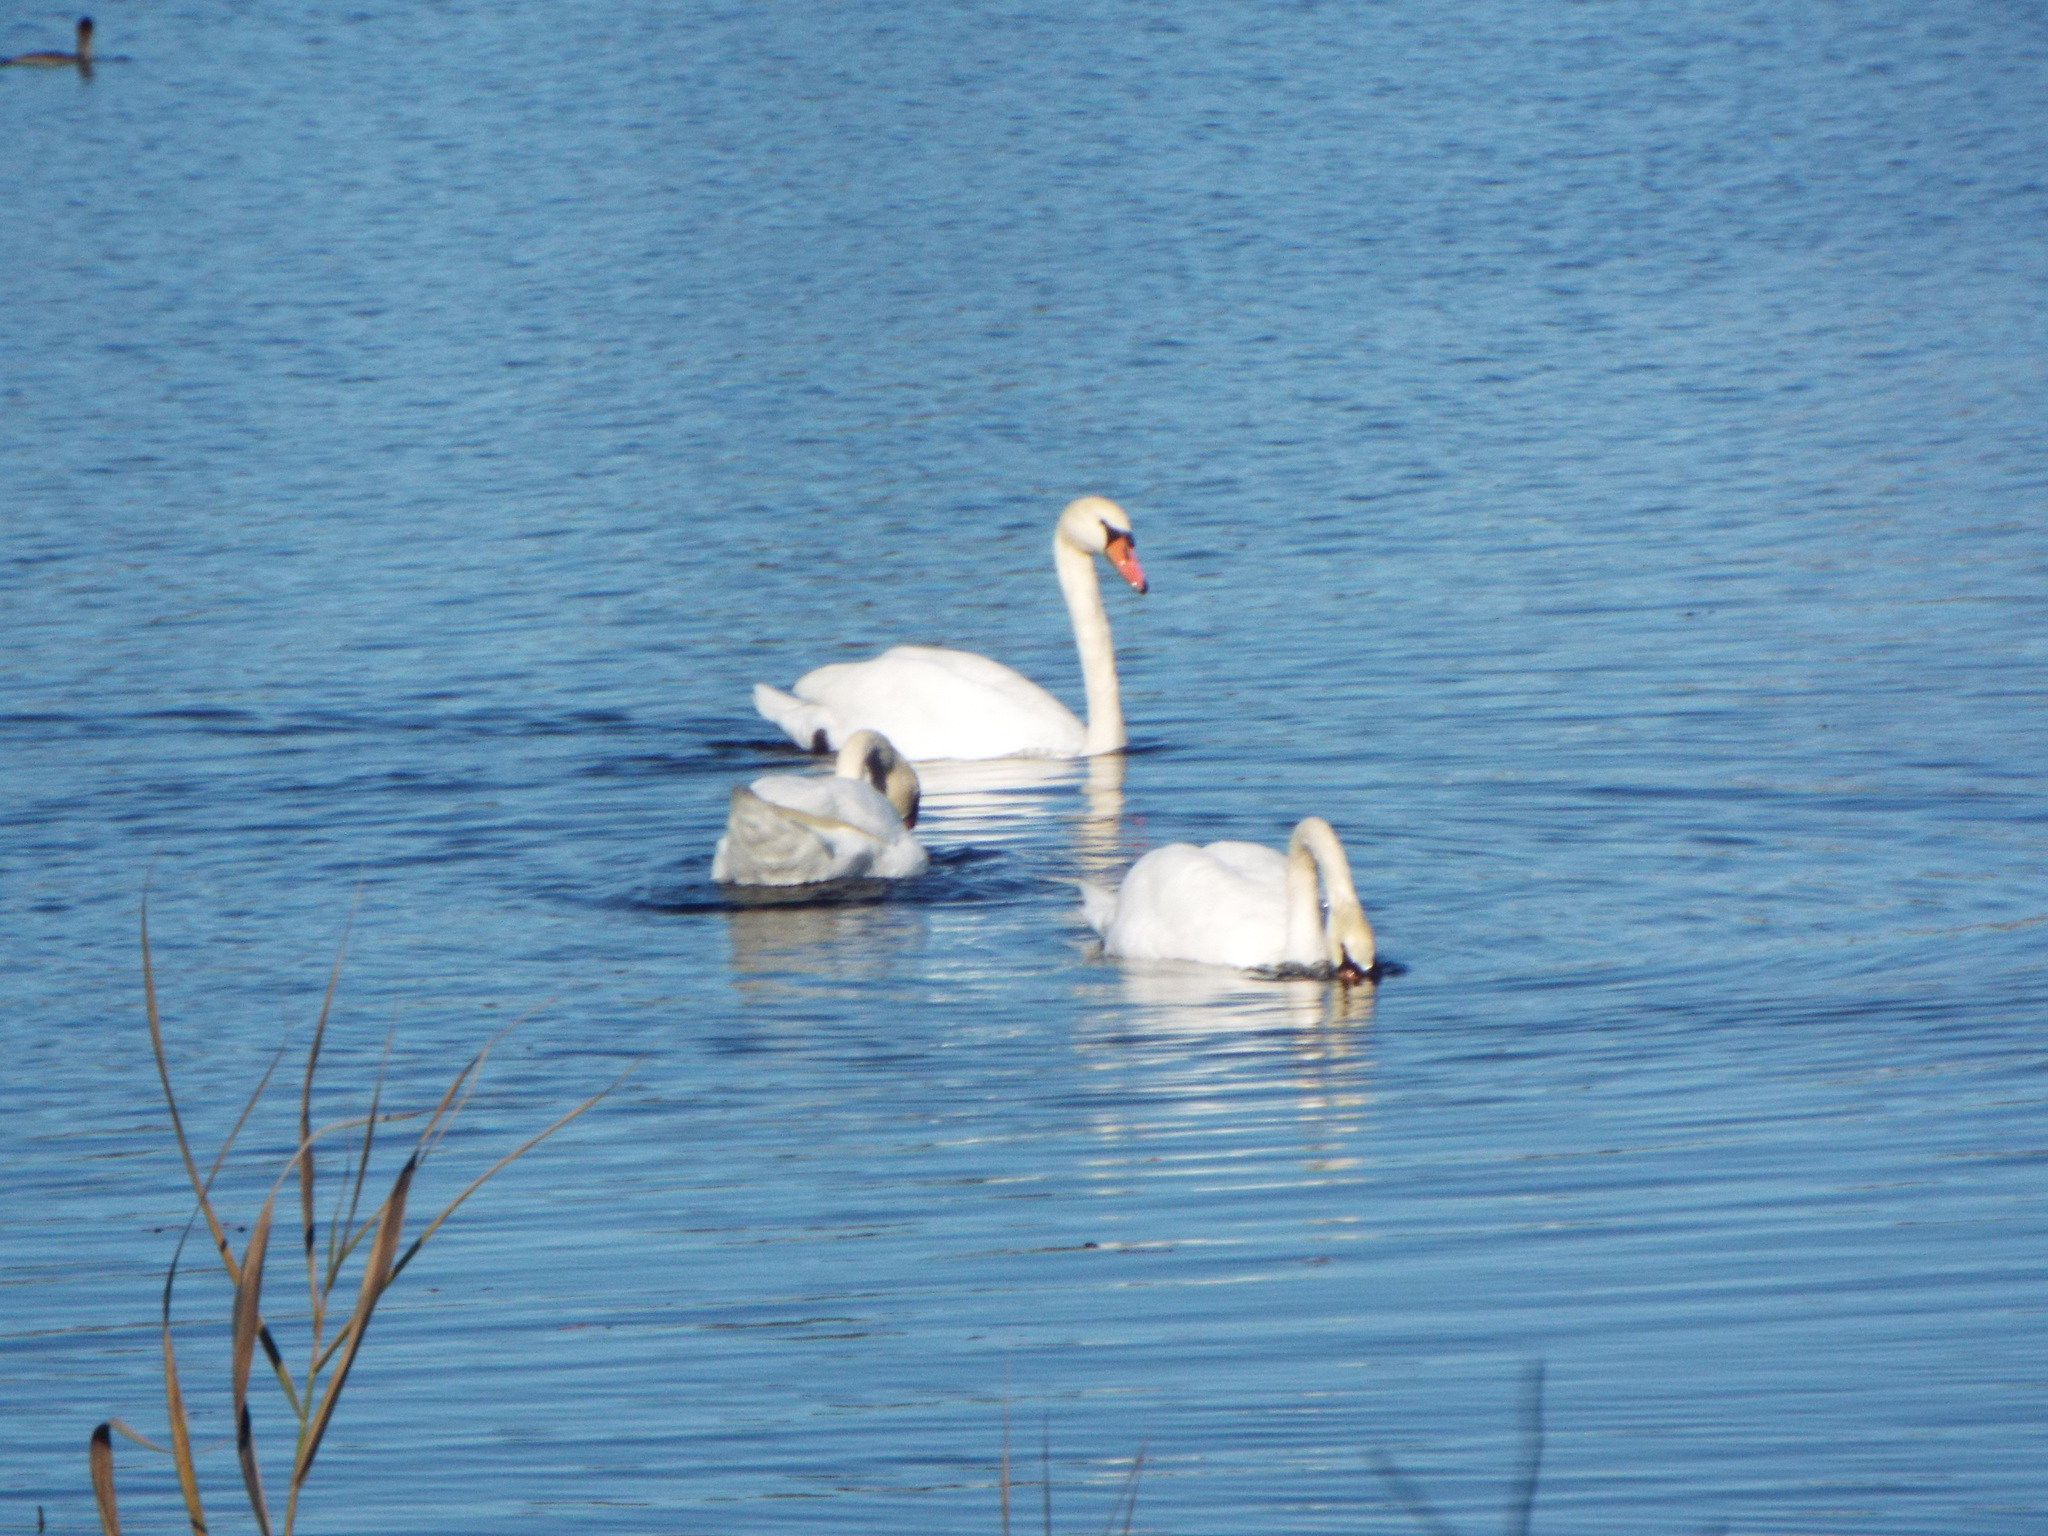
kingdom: Animalia
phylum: Chordata
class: Aves
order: Anseriformes
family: Anatidae
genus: Cygnus
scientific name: Cygnus olor
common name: Mute swan
